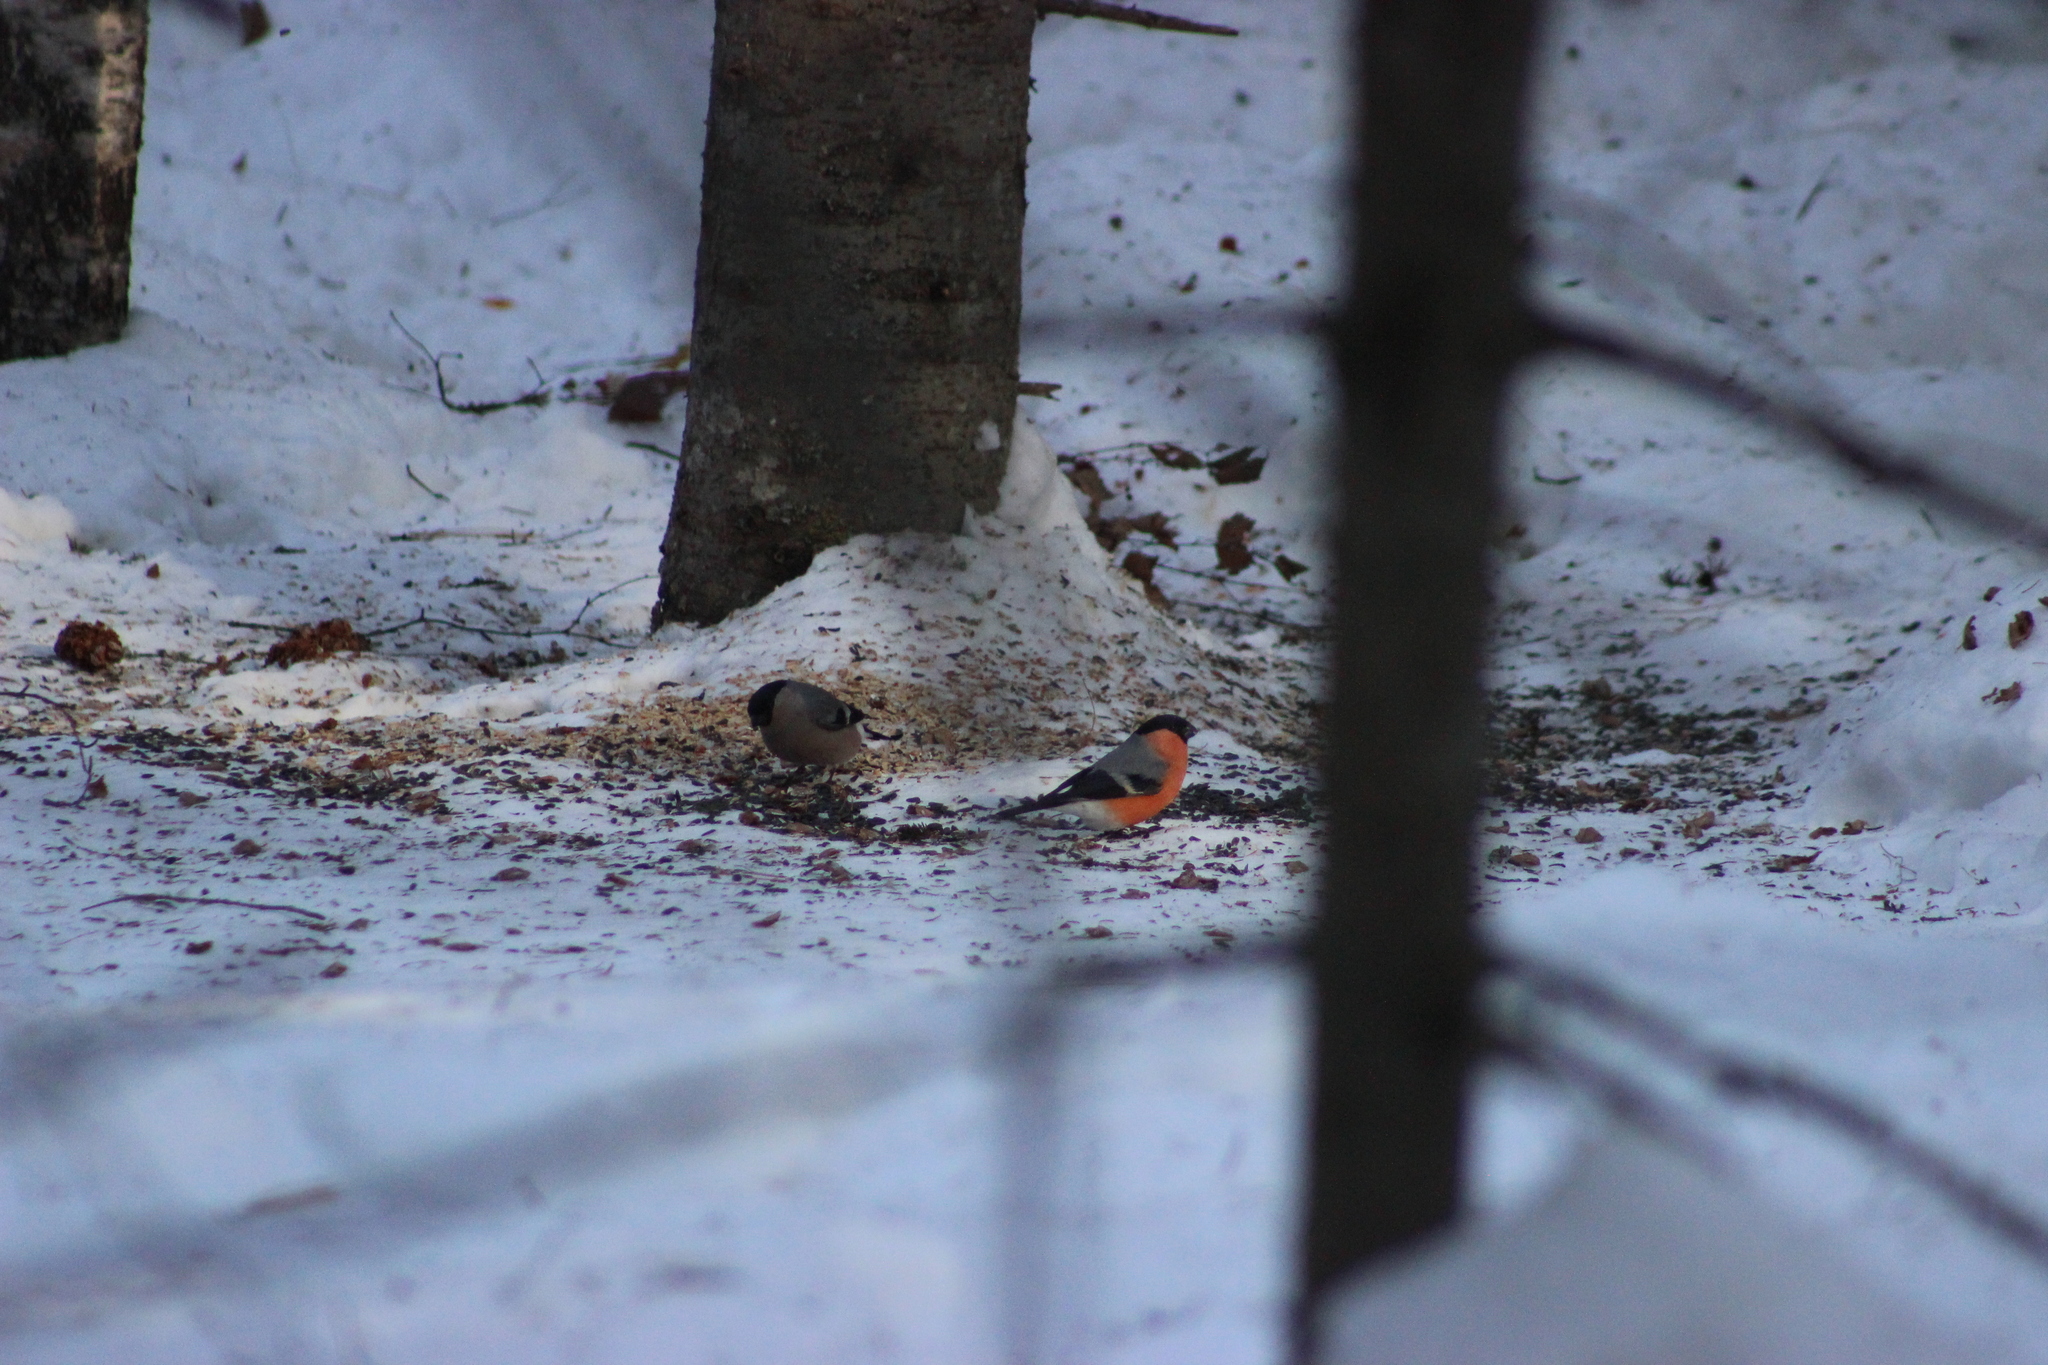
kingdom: Animalia
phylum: Chordata
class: Aves
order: Passeriformes
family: Fringillidae
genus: Pyrrhula
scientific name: Pyrrhula pyrrhula
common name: Eurasian bullfinch
